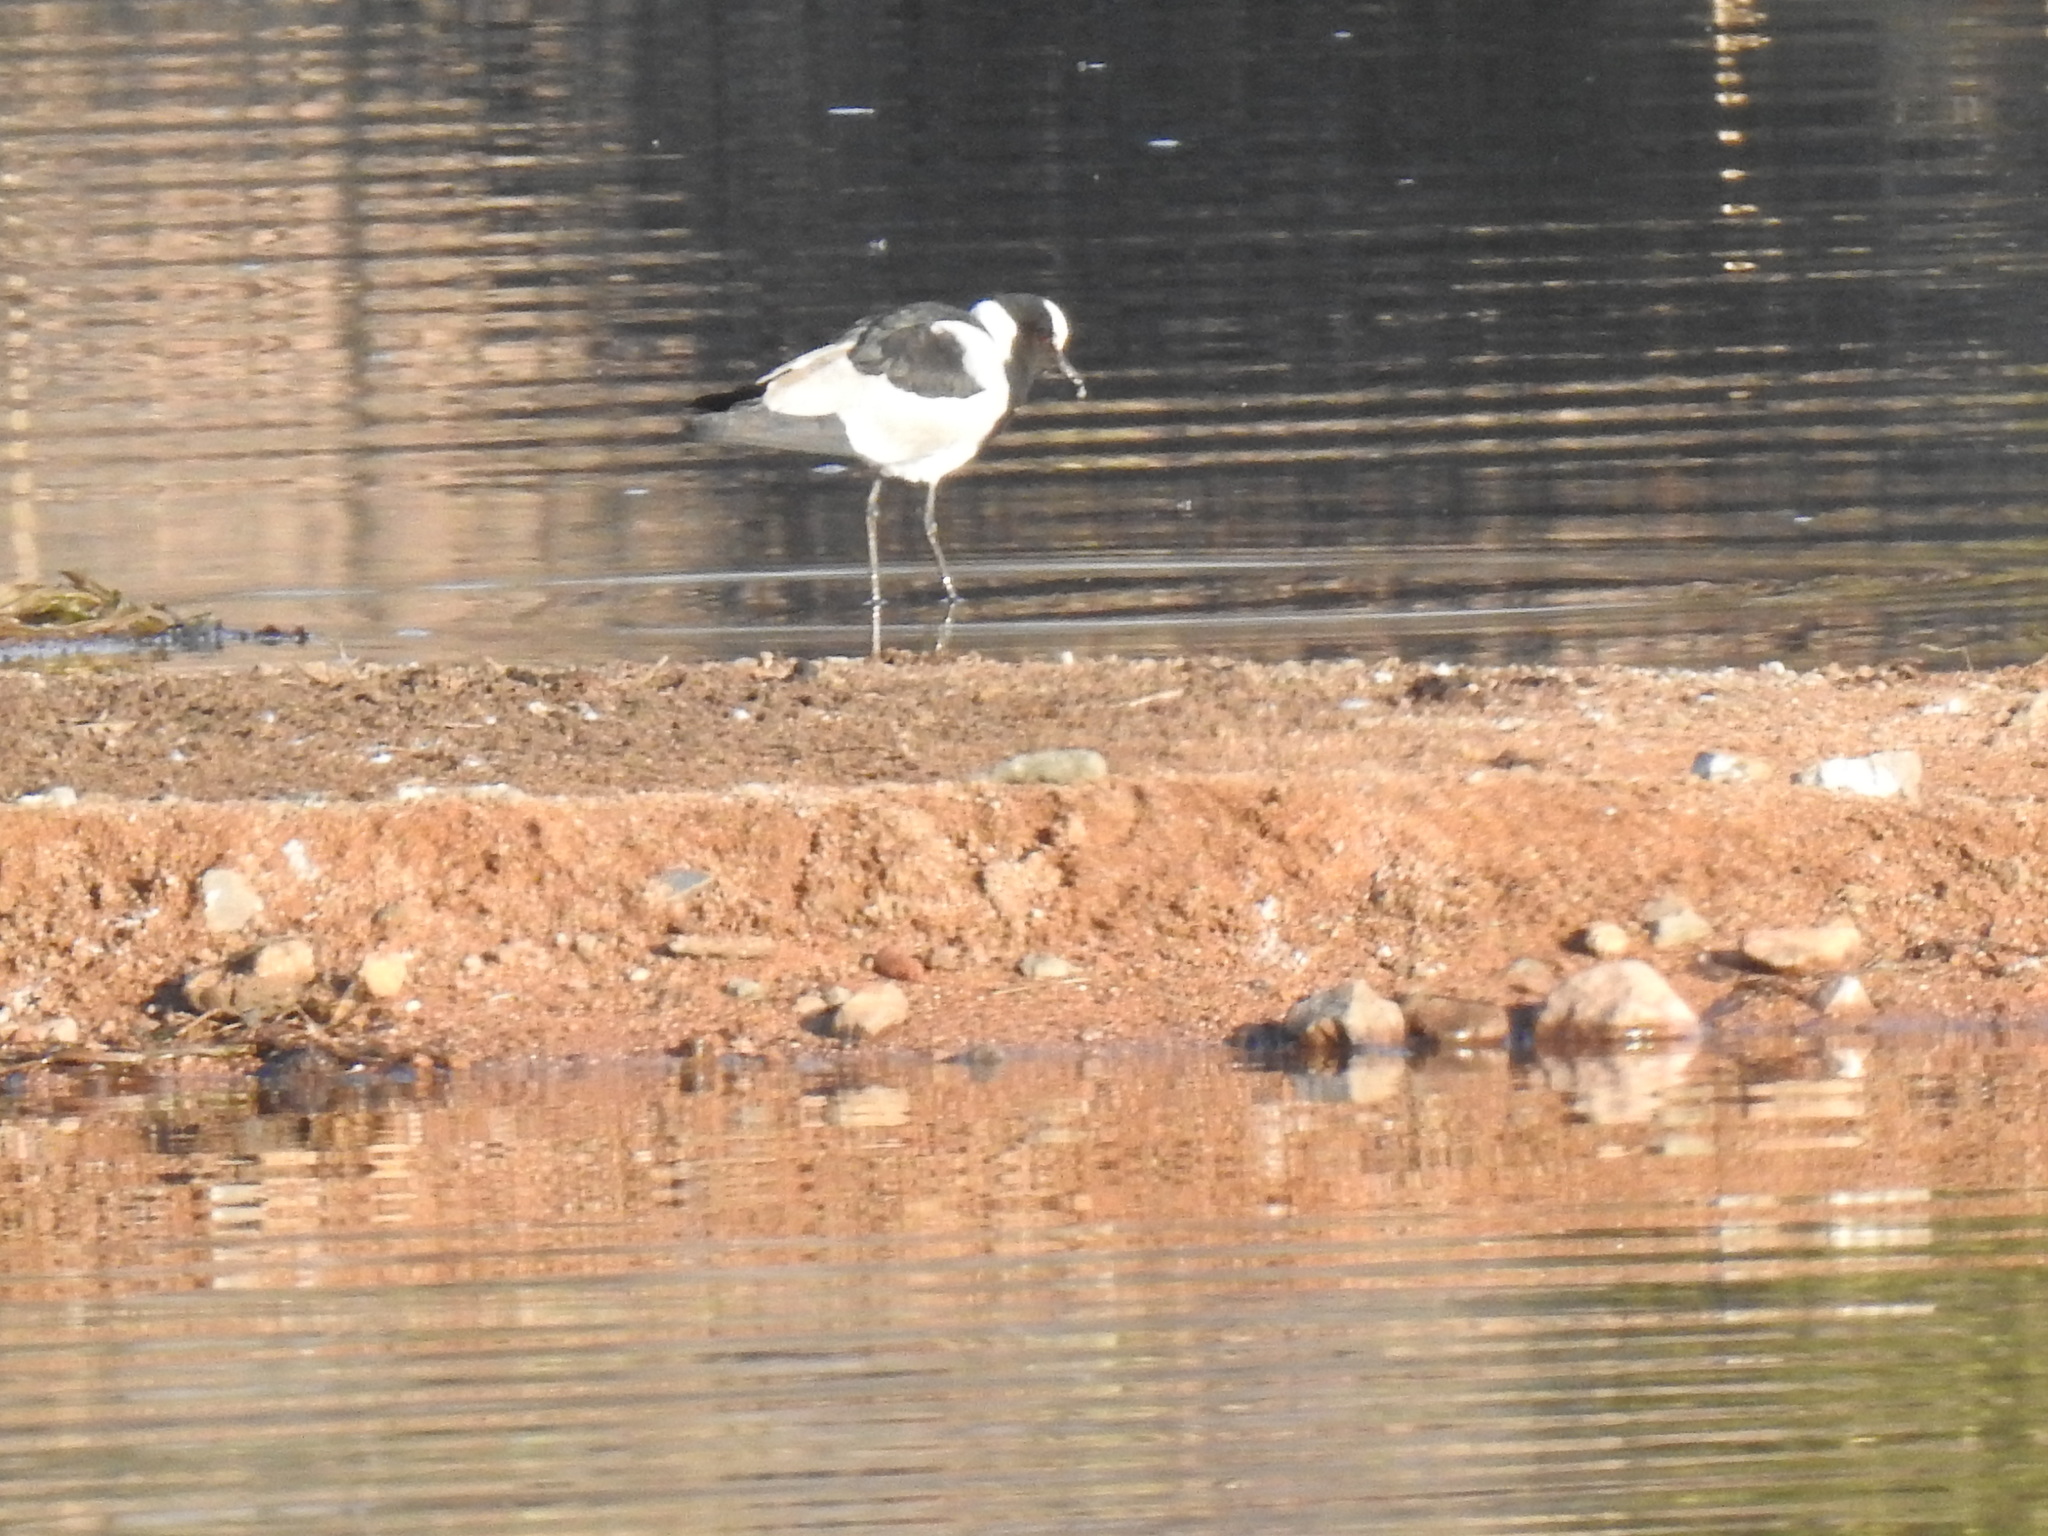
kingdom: Animalia
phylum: Chordata
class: Aves
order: Charadriiformes
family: Charadriidae
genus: Vanellus
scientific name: Vanellus armatus
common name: Blacksmith lapwing
